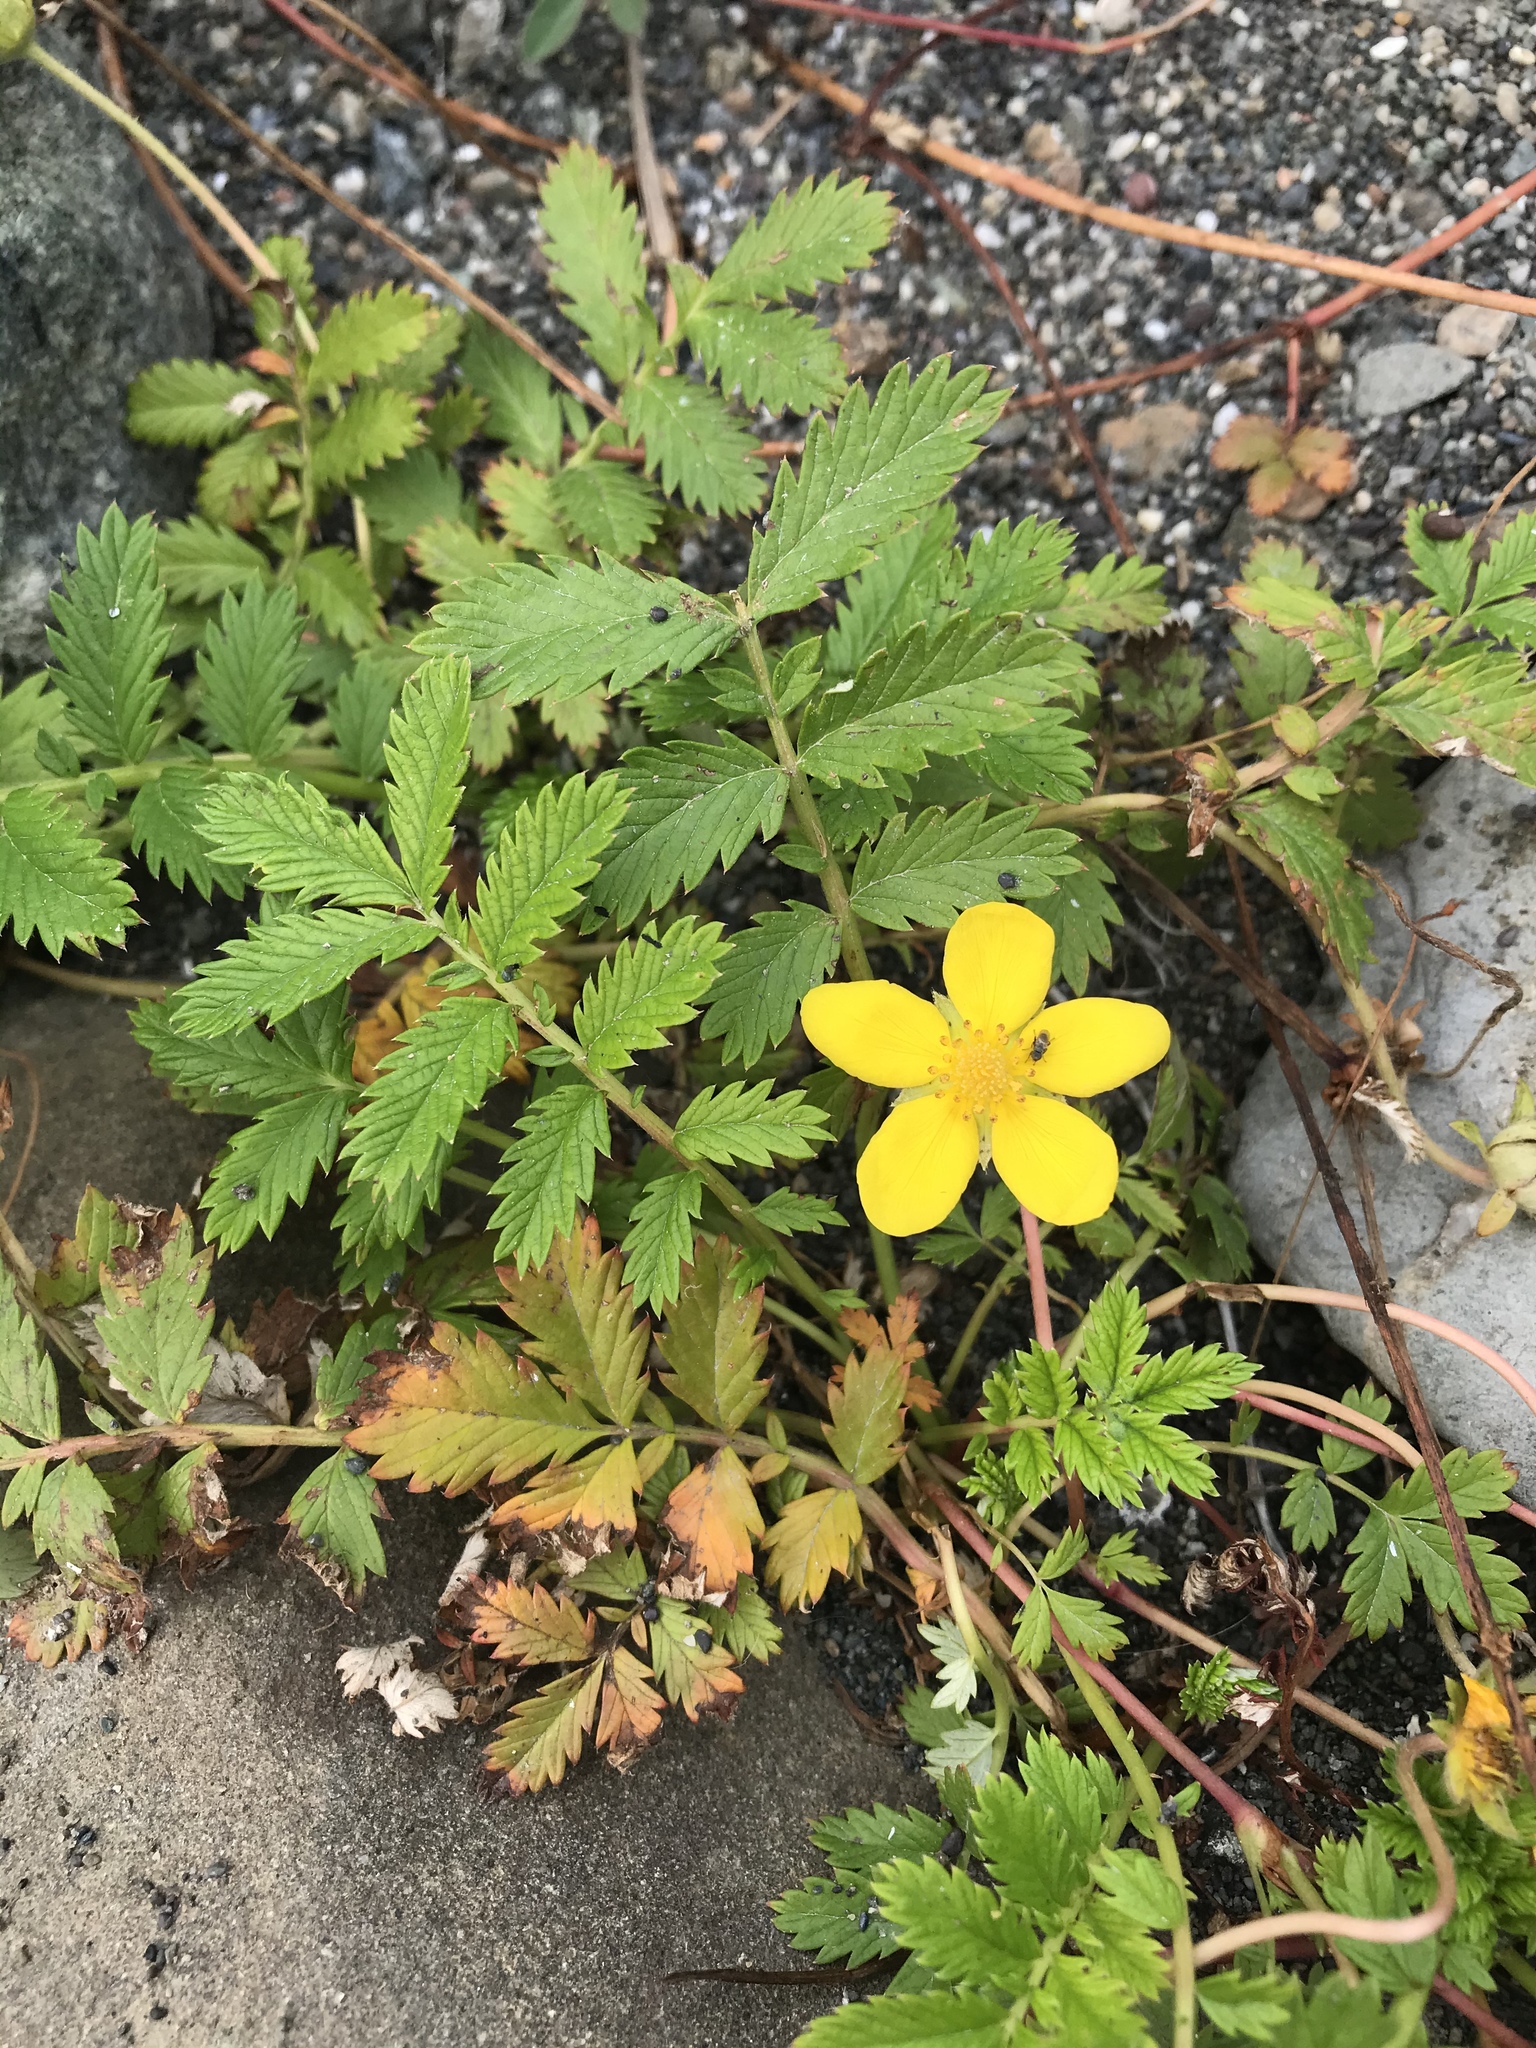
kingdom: Plantae
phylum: Tracheophyta
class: Magnoliopsida
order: Rosales
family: Rosaceae
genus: Argentina
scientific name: Argentina anserina
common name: Common silverweed
